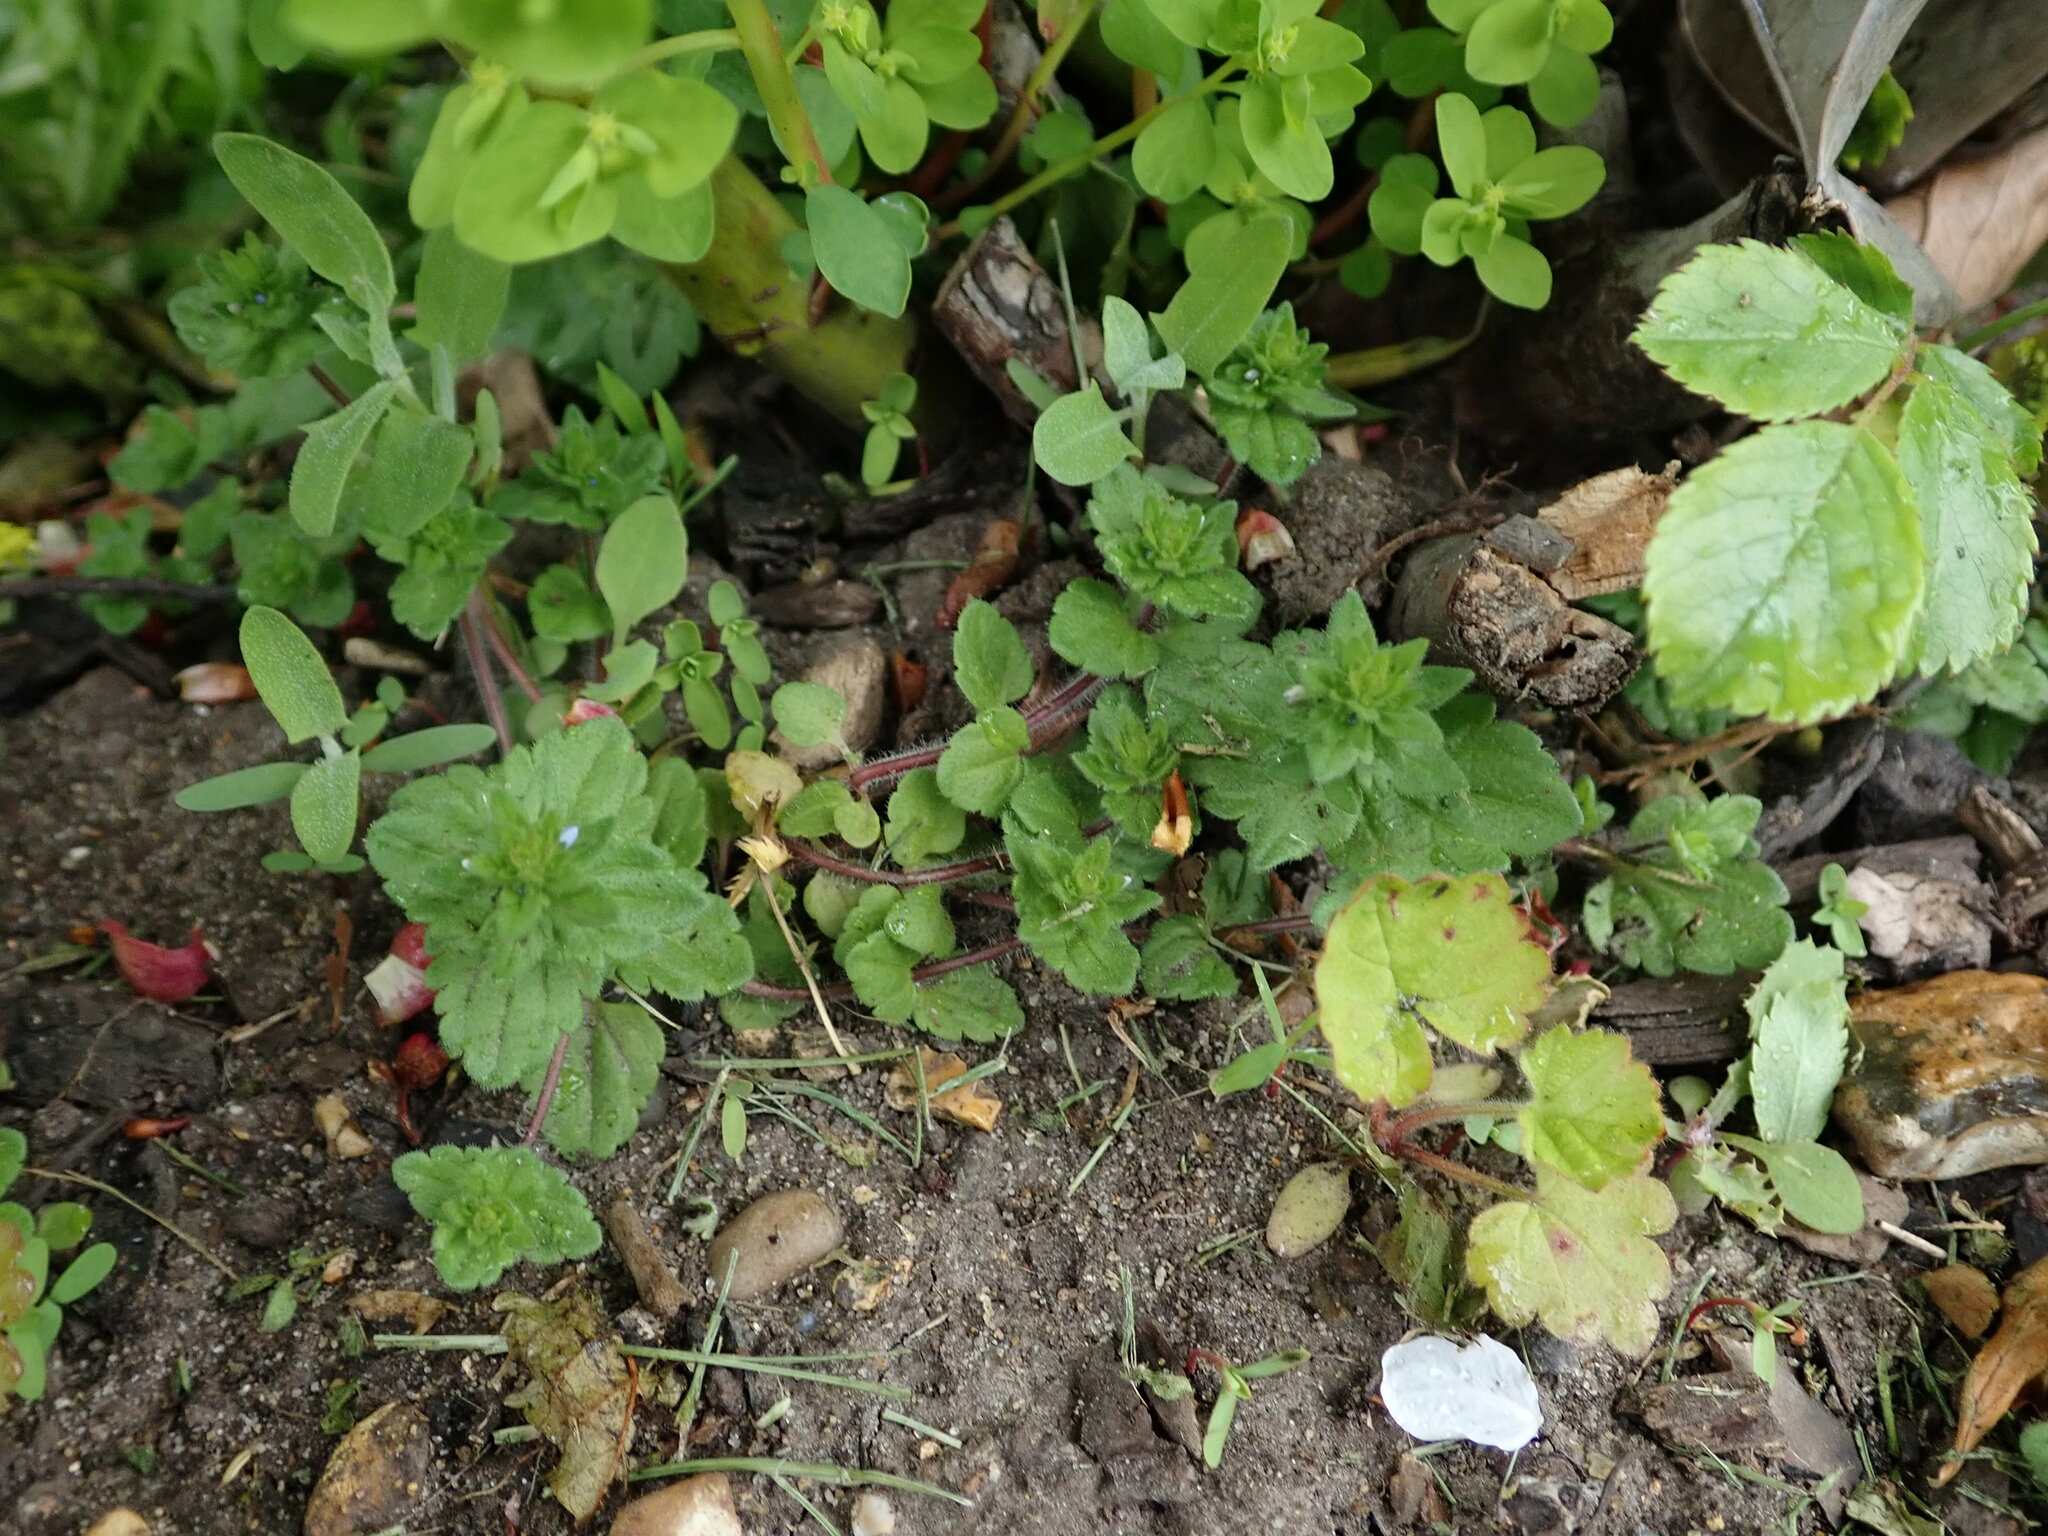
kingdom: Plantae
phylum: Tracheophyta
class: Magnoliopsida
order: Lamiales
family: Plantaginaceae
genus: Veronica
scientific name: Veronica arvensis
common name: Corn speedwell
